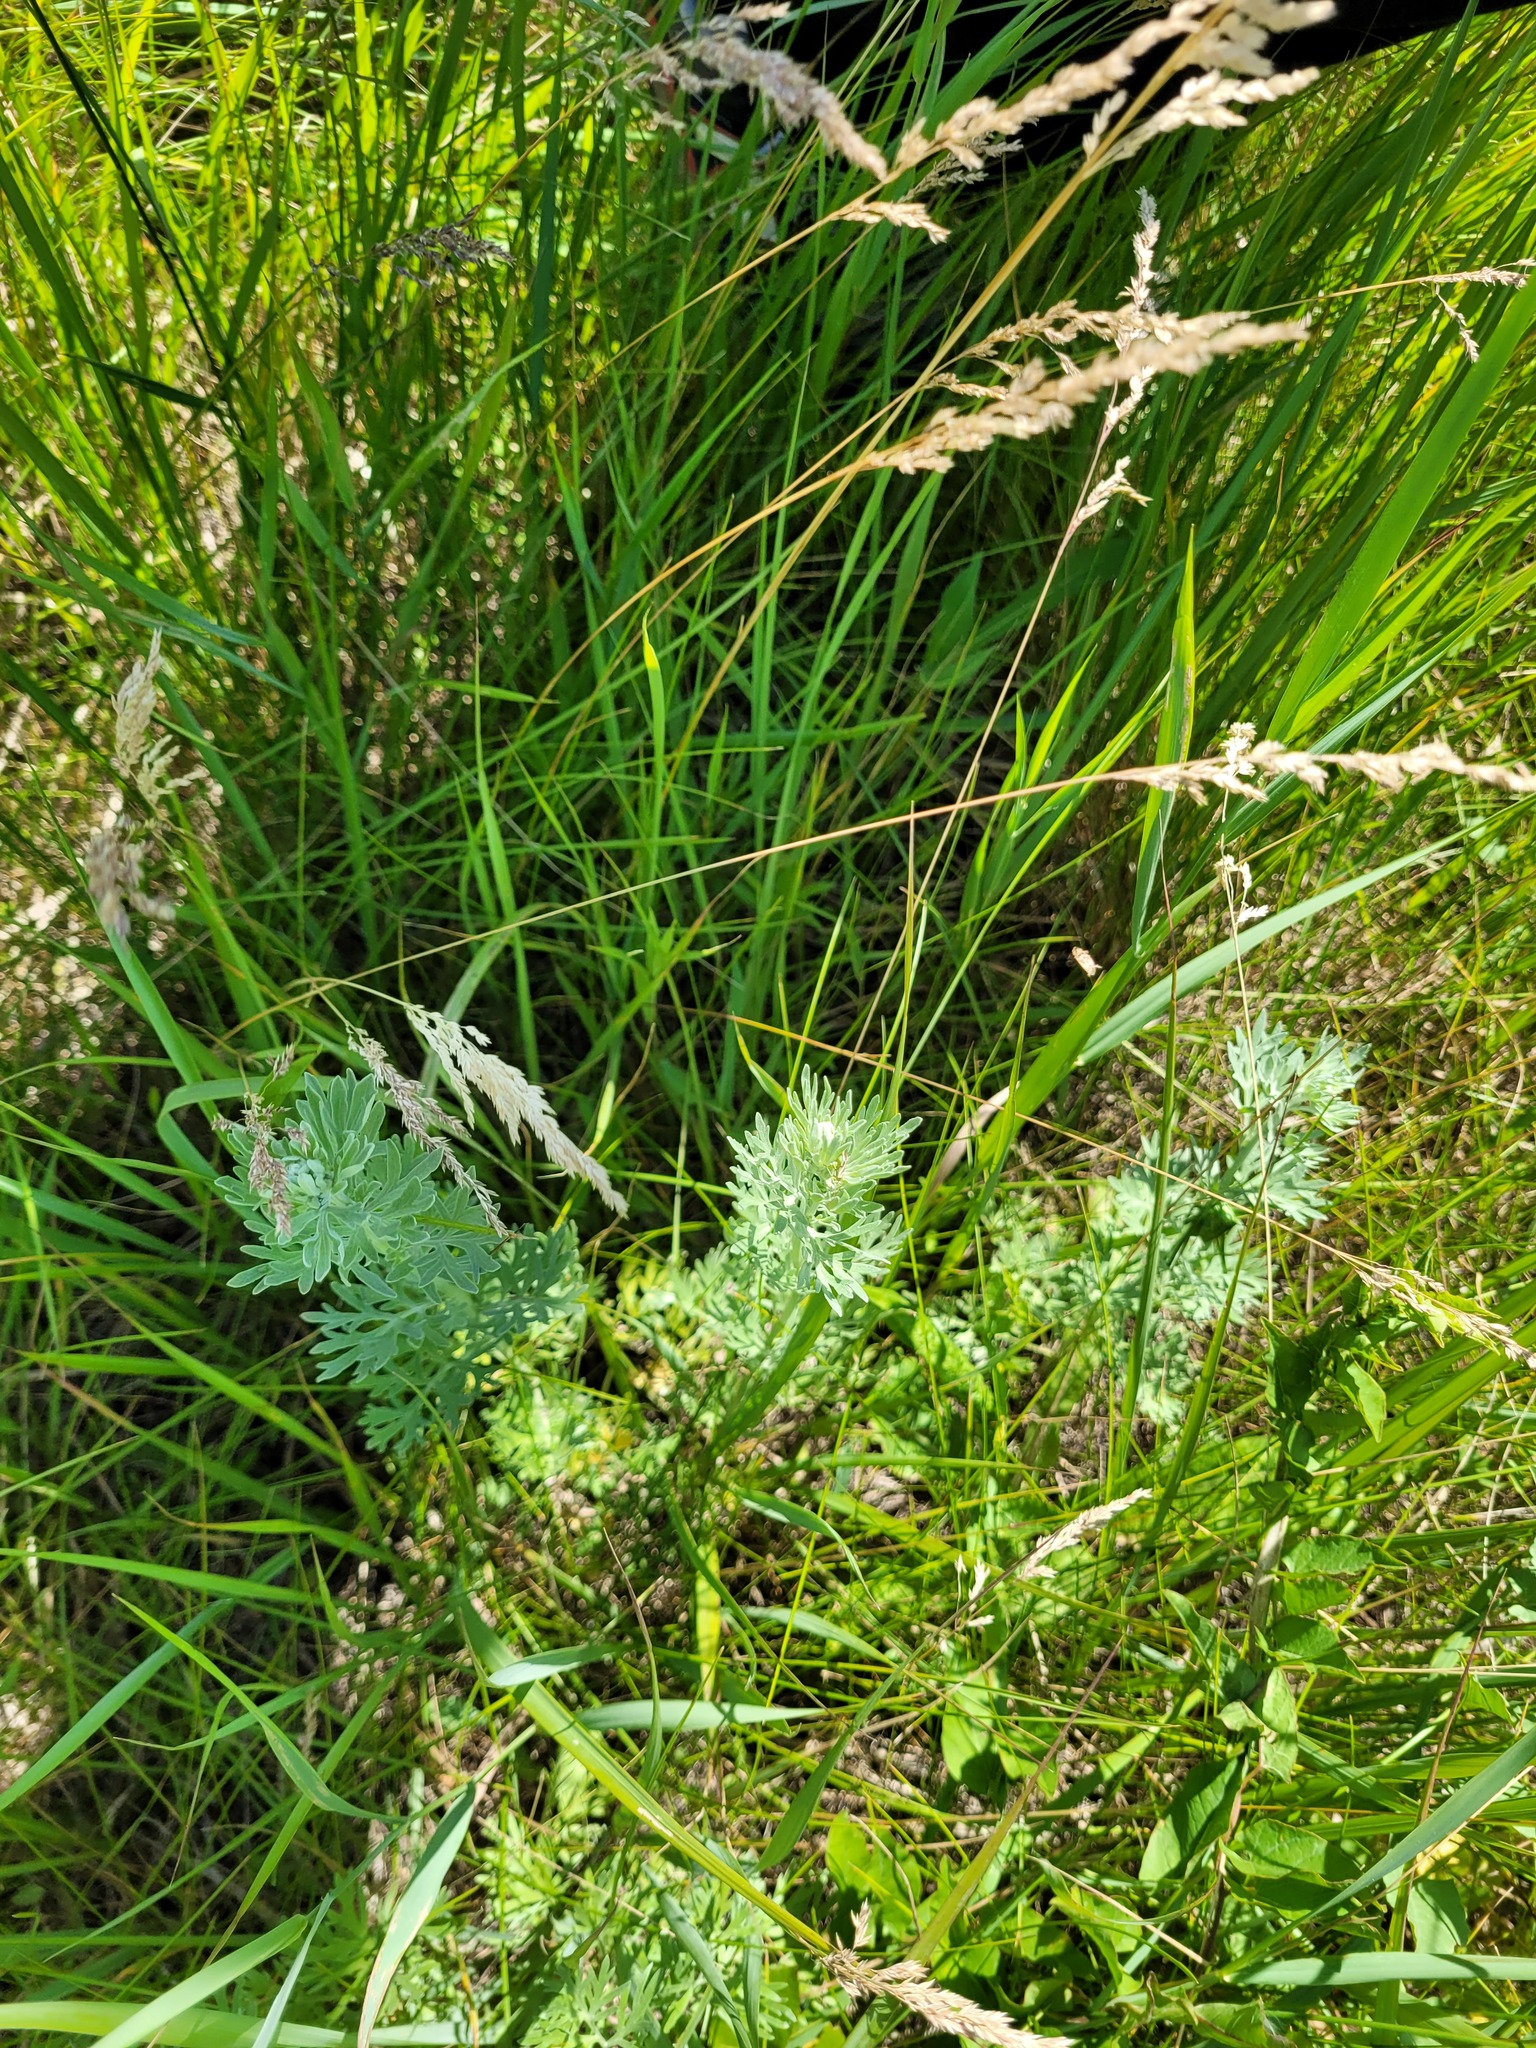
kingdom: Plantae
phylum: Tracheophyta
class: Magnoliopsida
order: Asterales
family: Asteraceae
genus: Artemisia
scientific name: Artemisia absinthium
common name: Wormwood
